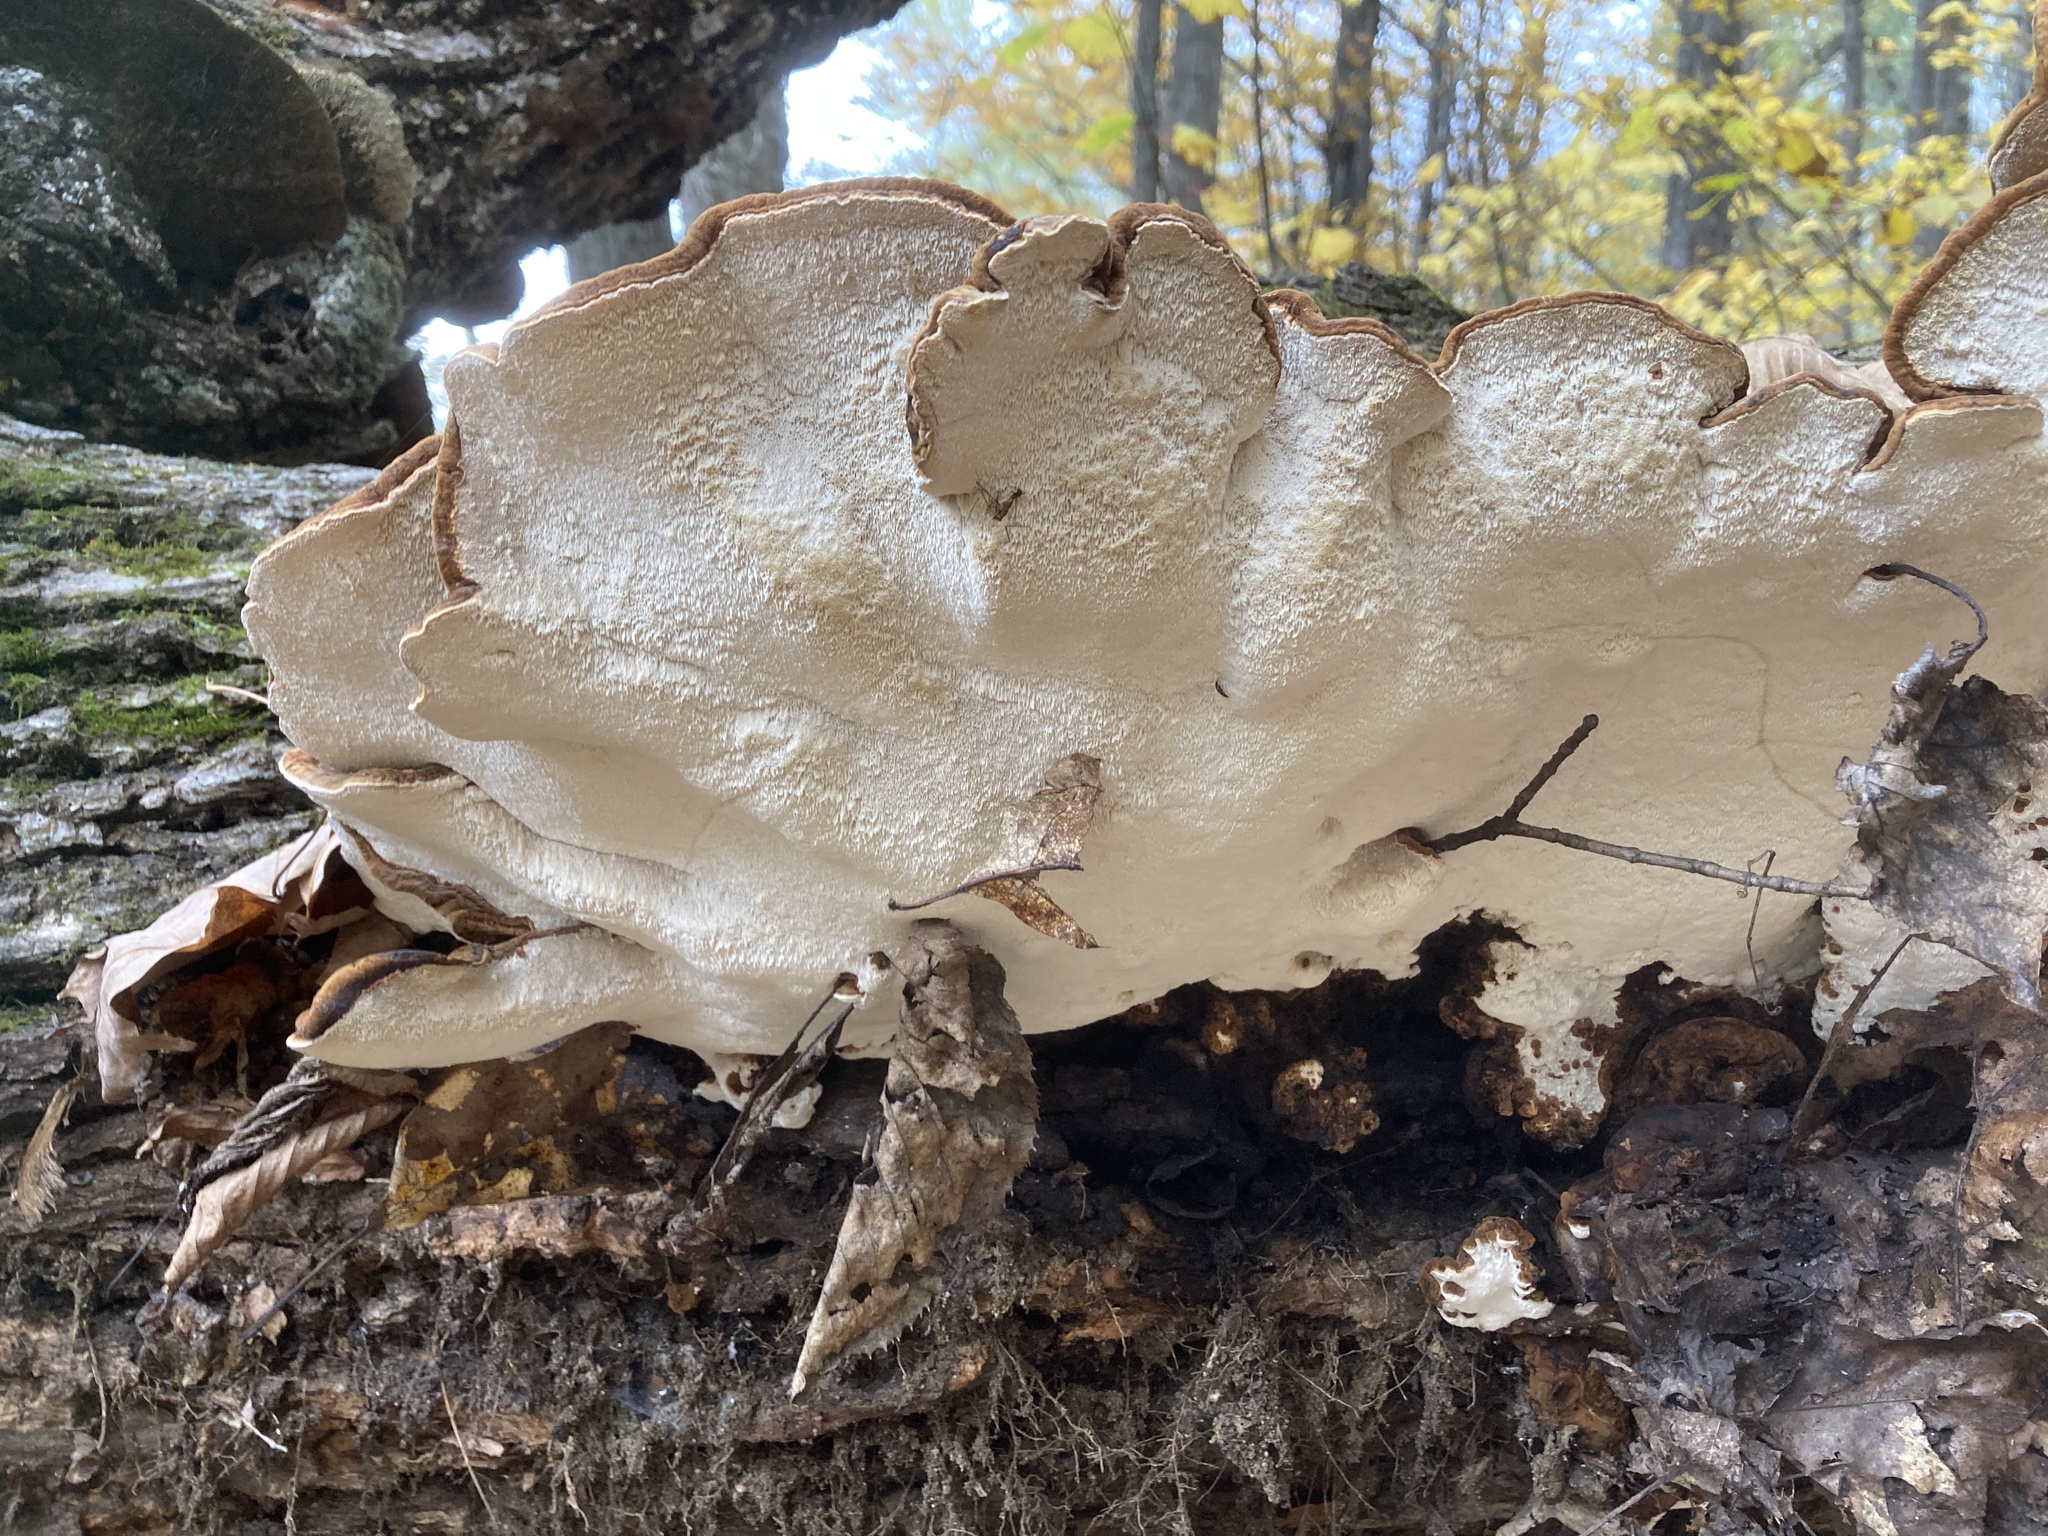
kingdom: Fungi
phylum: Basidiomycota
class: Agaricomycetes
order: Polyporales
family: Ischnodermataceae
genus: Ischnoderma
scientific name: Ischnoderma resinosum
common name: Resinous polypore
